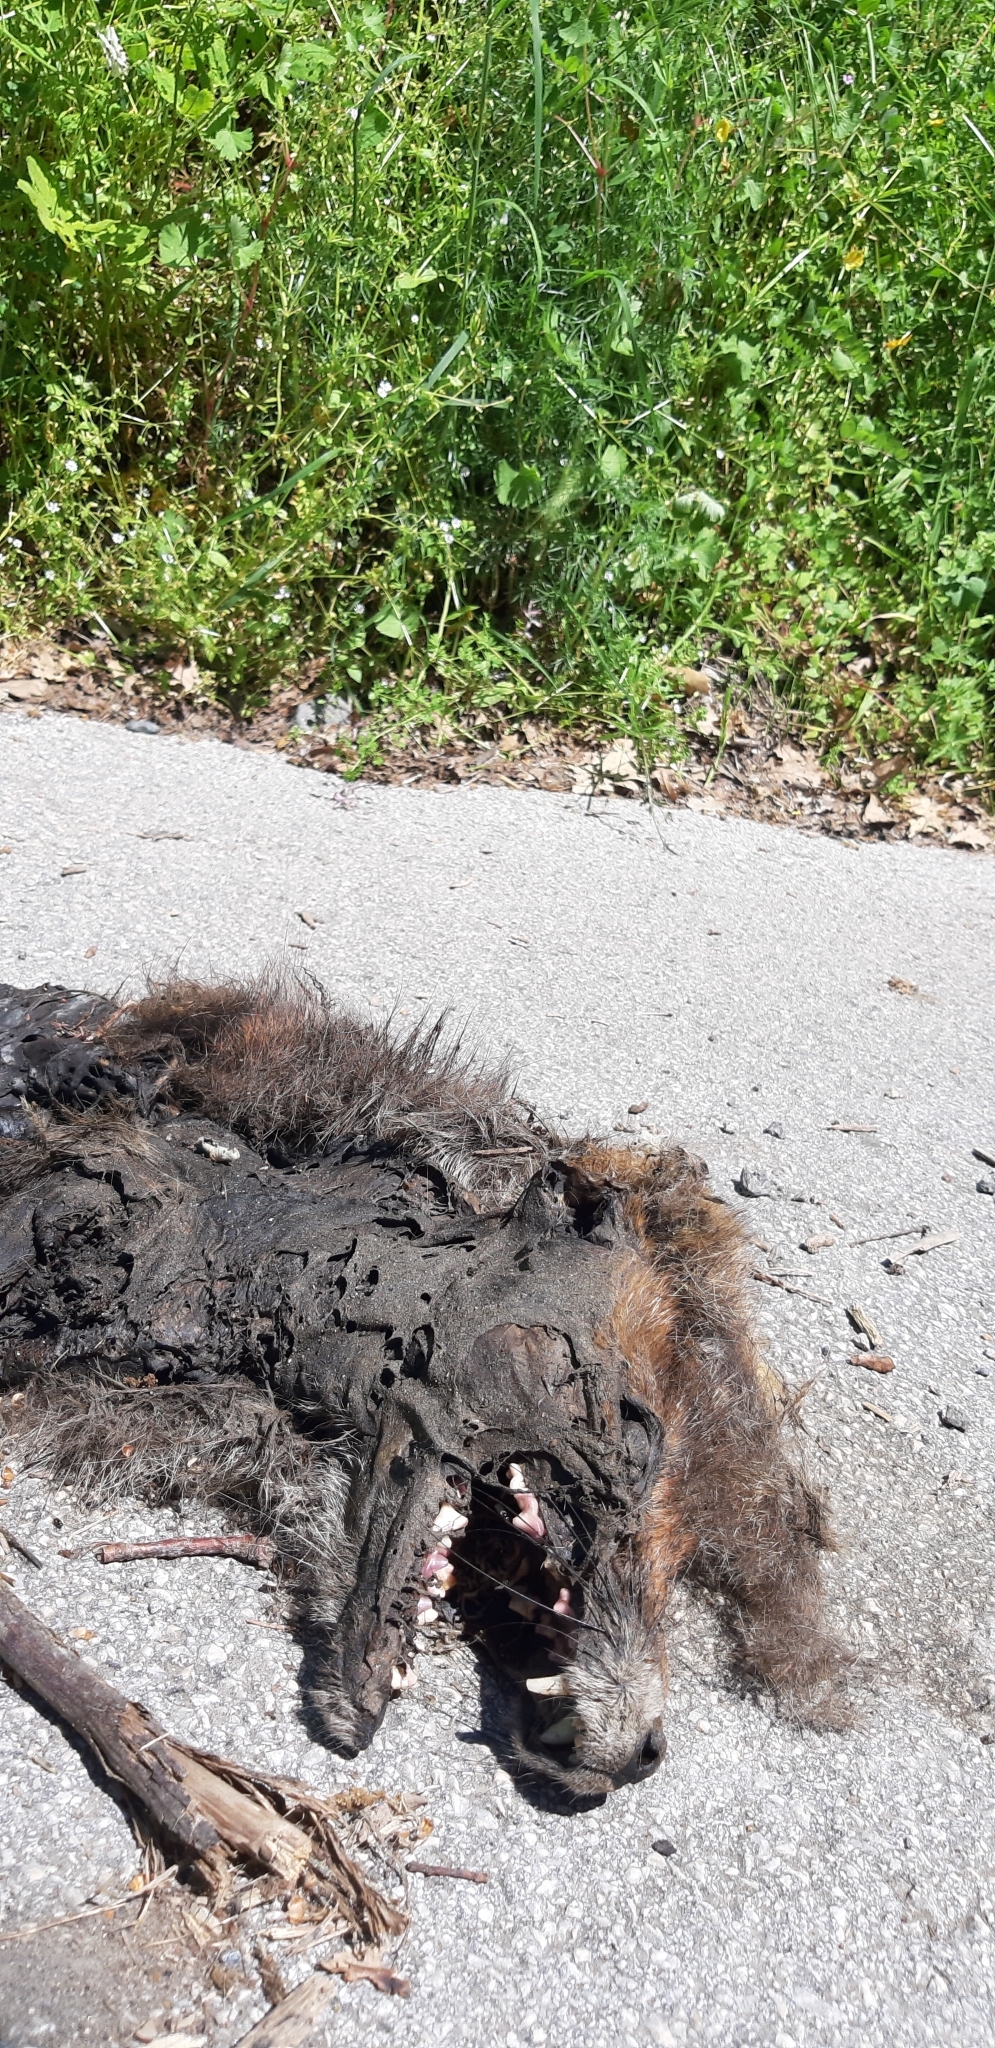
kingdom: Animalia
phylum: Chordata
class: Mammalia
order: Carnivora
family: Canidae
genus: Vulpes
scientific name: Vulpes vulpes
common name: Red fox
